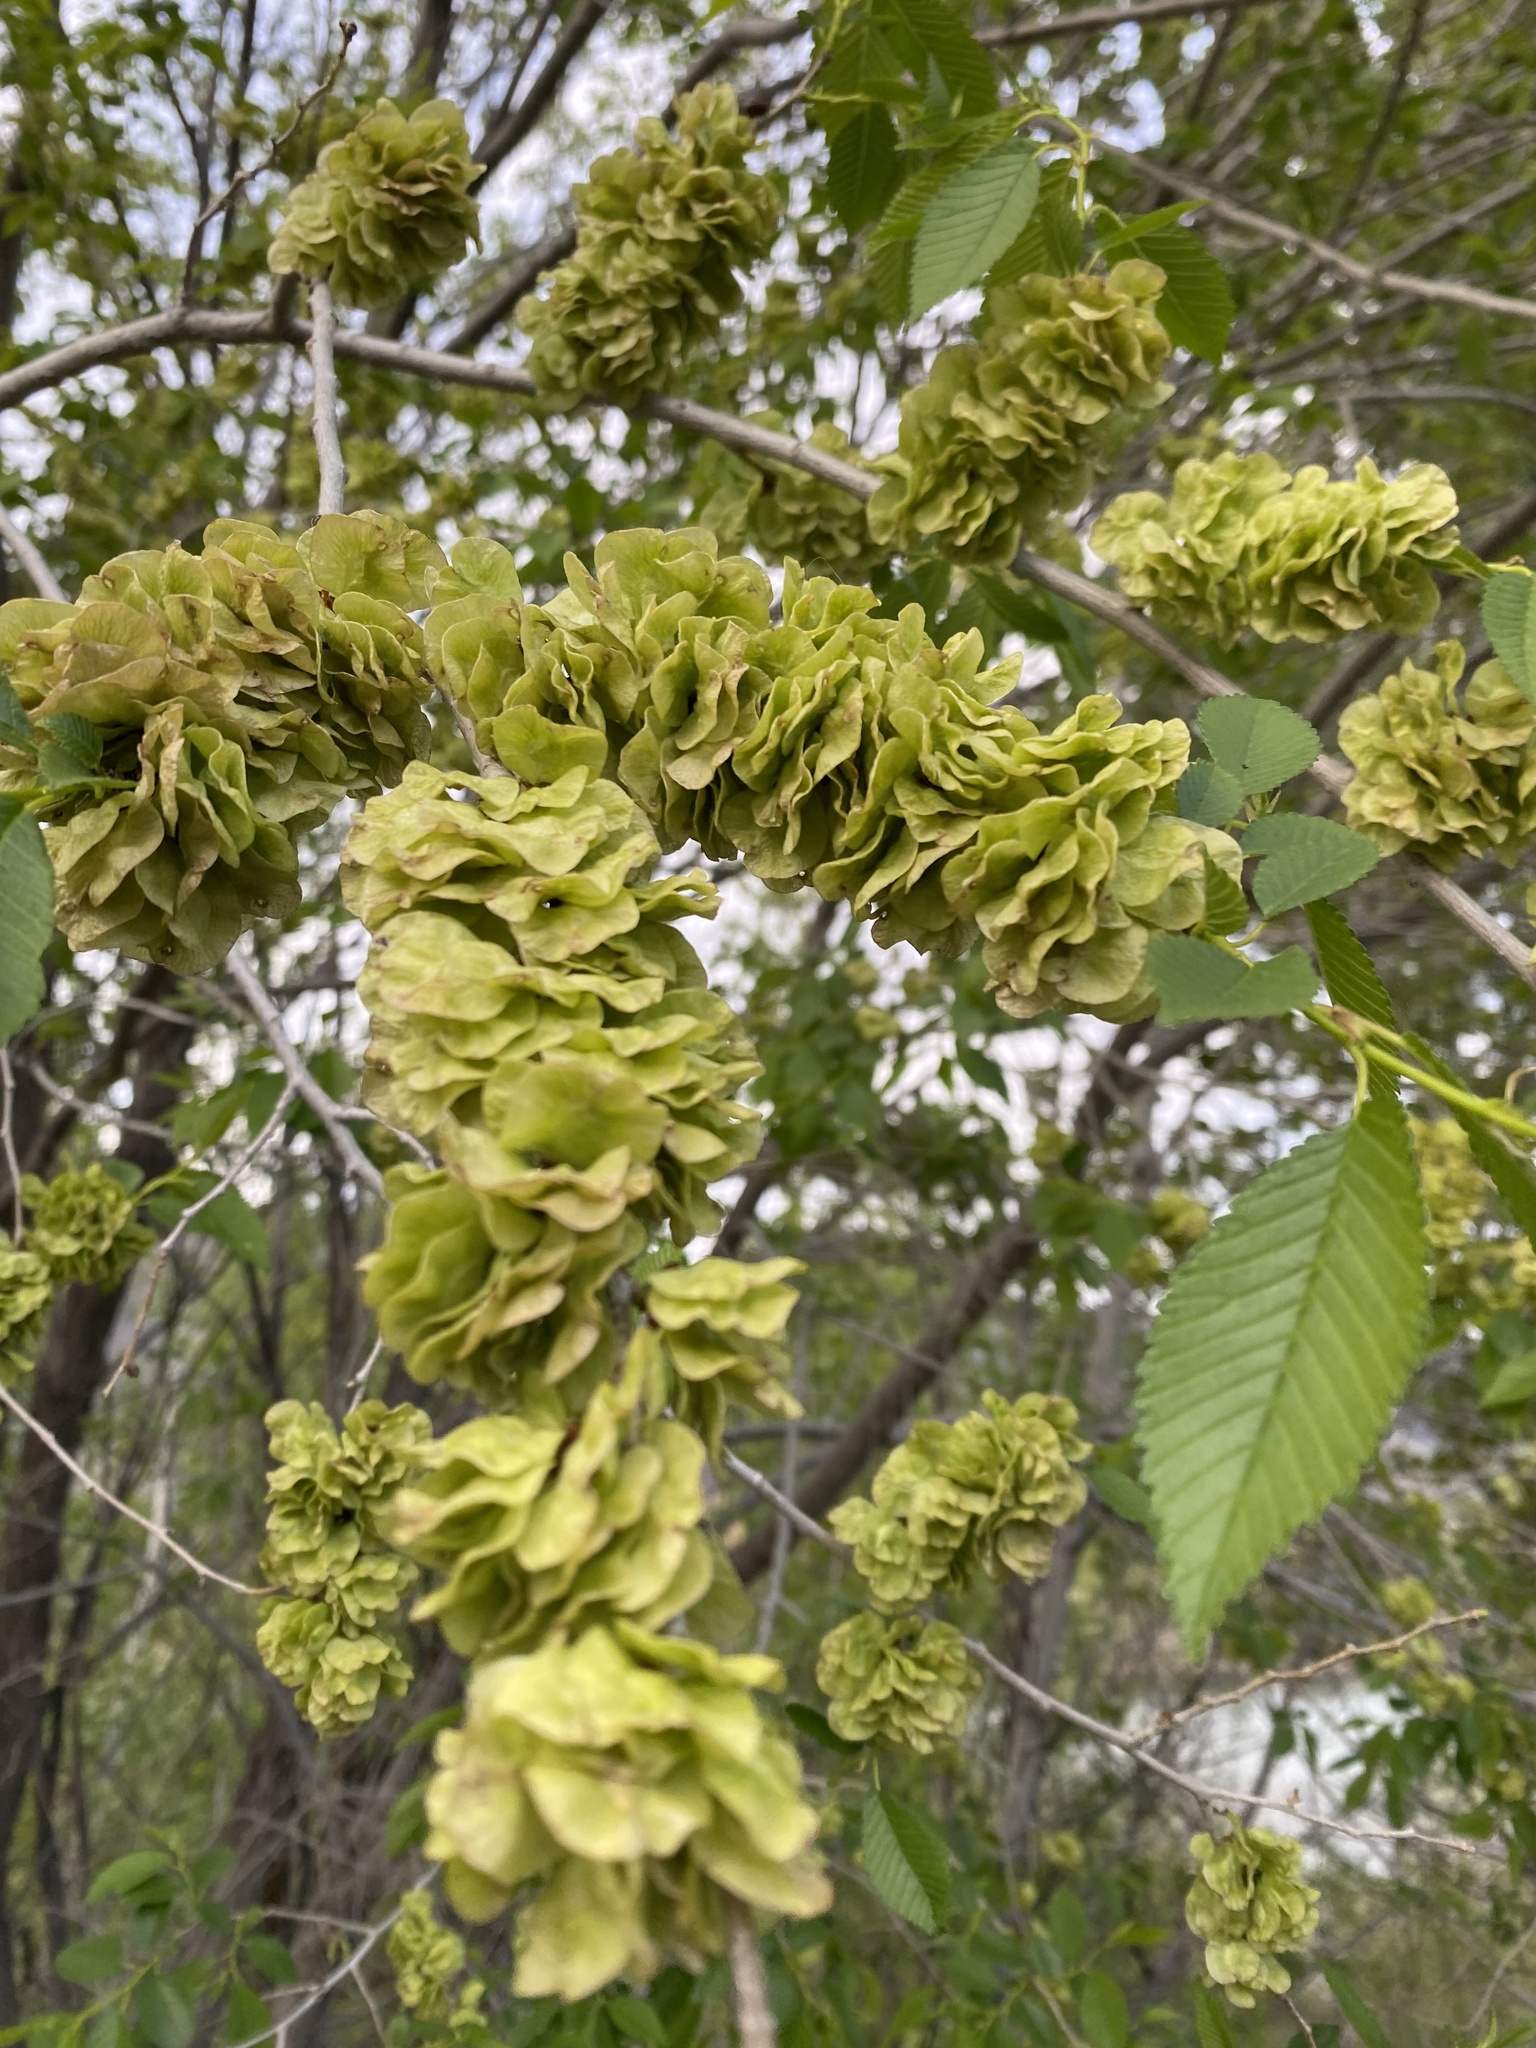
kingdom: Plantae
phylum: Tracheophyta
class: Magnoliopsida
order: Rosales
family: Ulmaceae
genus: Ulmus
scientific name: Ulmus pumila
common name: Siberian elm
